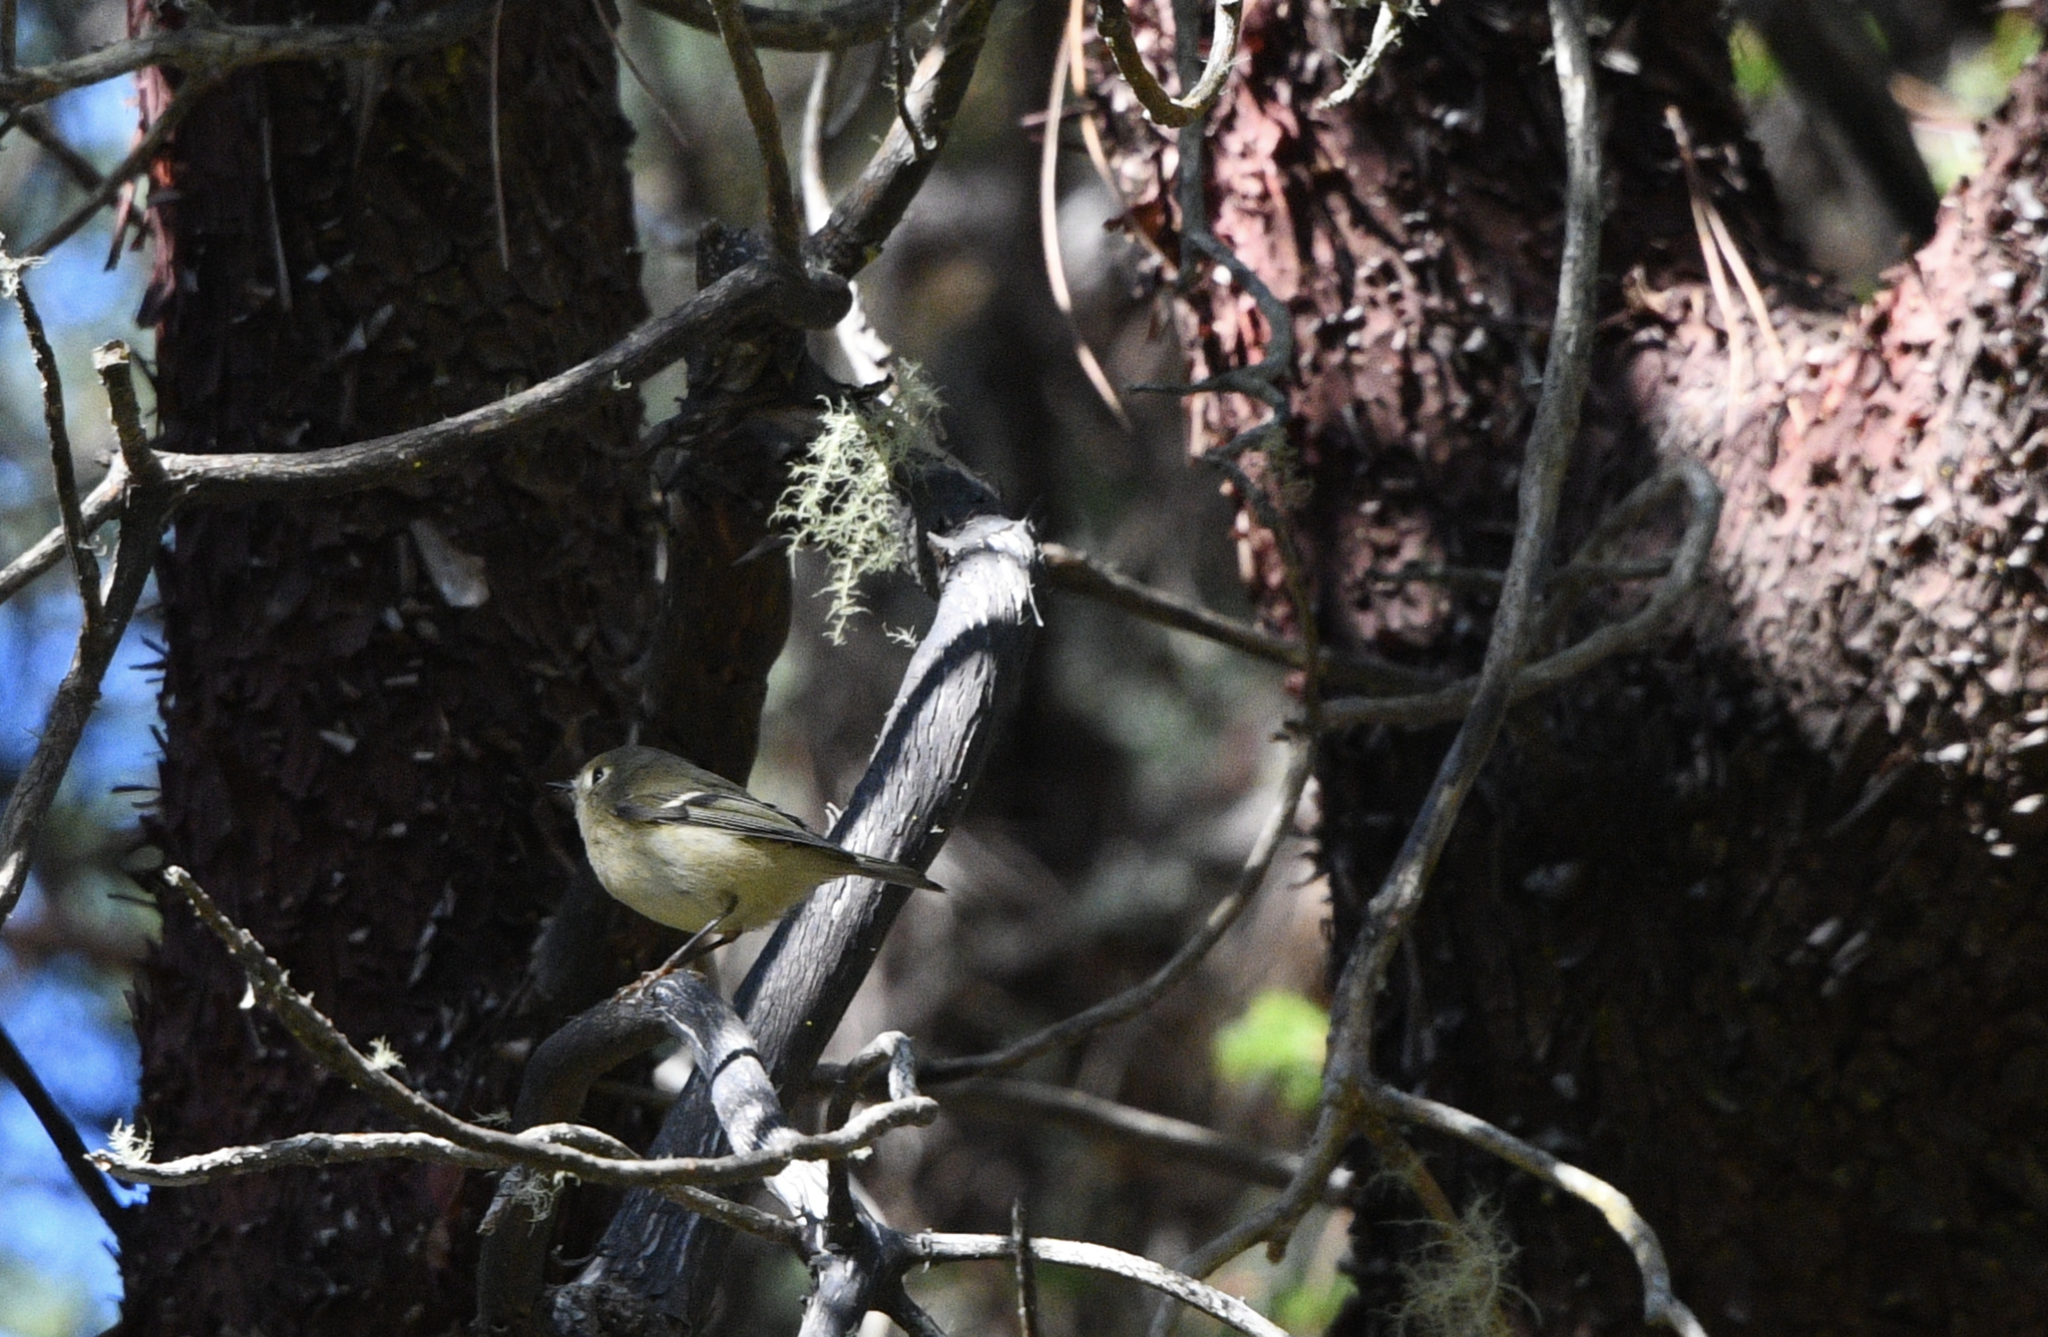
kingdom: Animalia
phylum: Chordata
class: Aves
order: Passeriformes
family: Regulidae
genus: Regulus
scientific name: Regulus calendula
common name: Ruby-crowned kinglet
